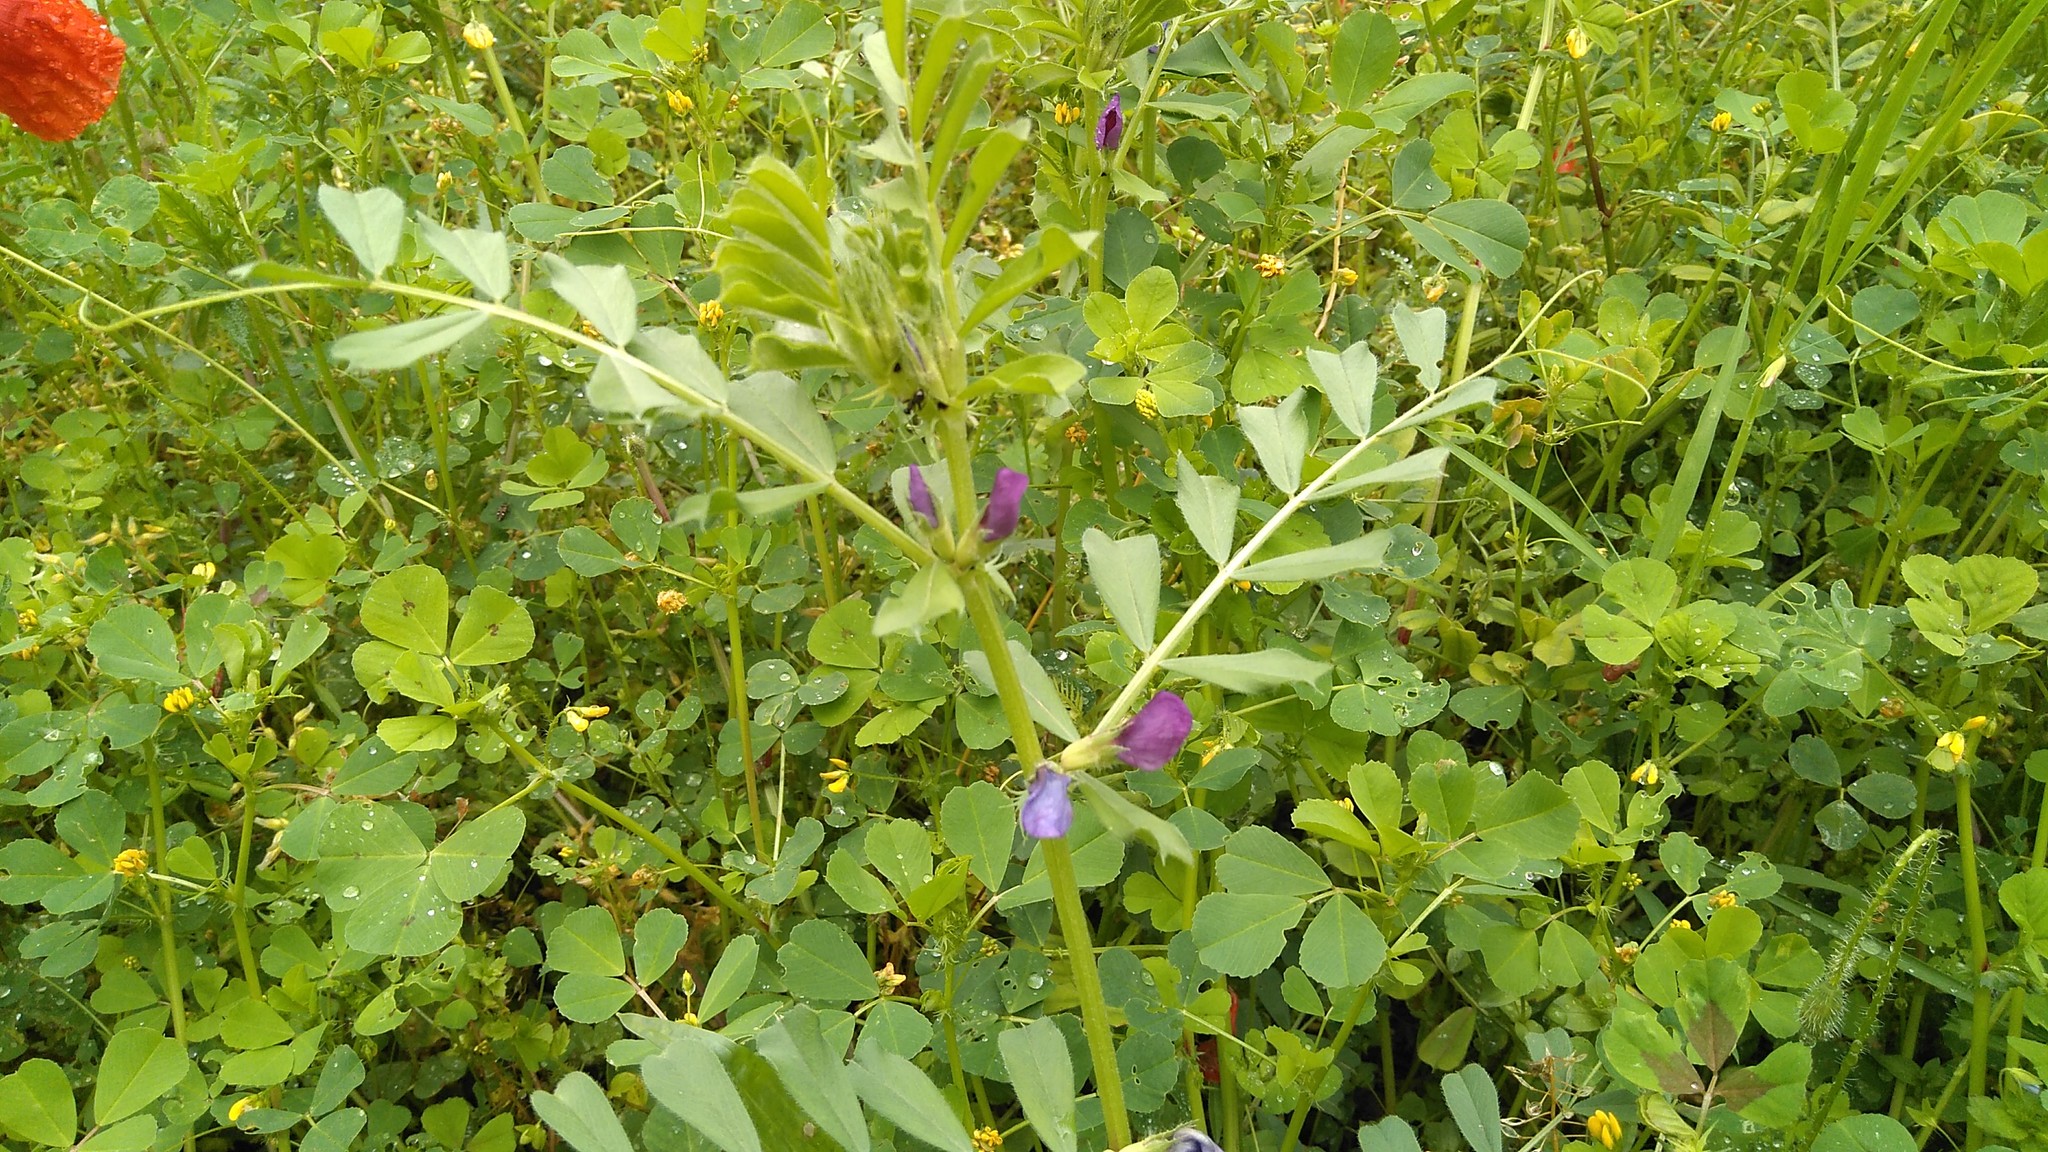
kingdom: Plantae
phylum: Tracheophyta
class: Magnoliopsida
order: Fabales
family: Fabaceae
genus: Vicia
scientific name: Vicia sativa
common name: Garden vetch
